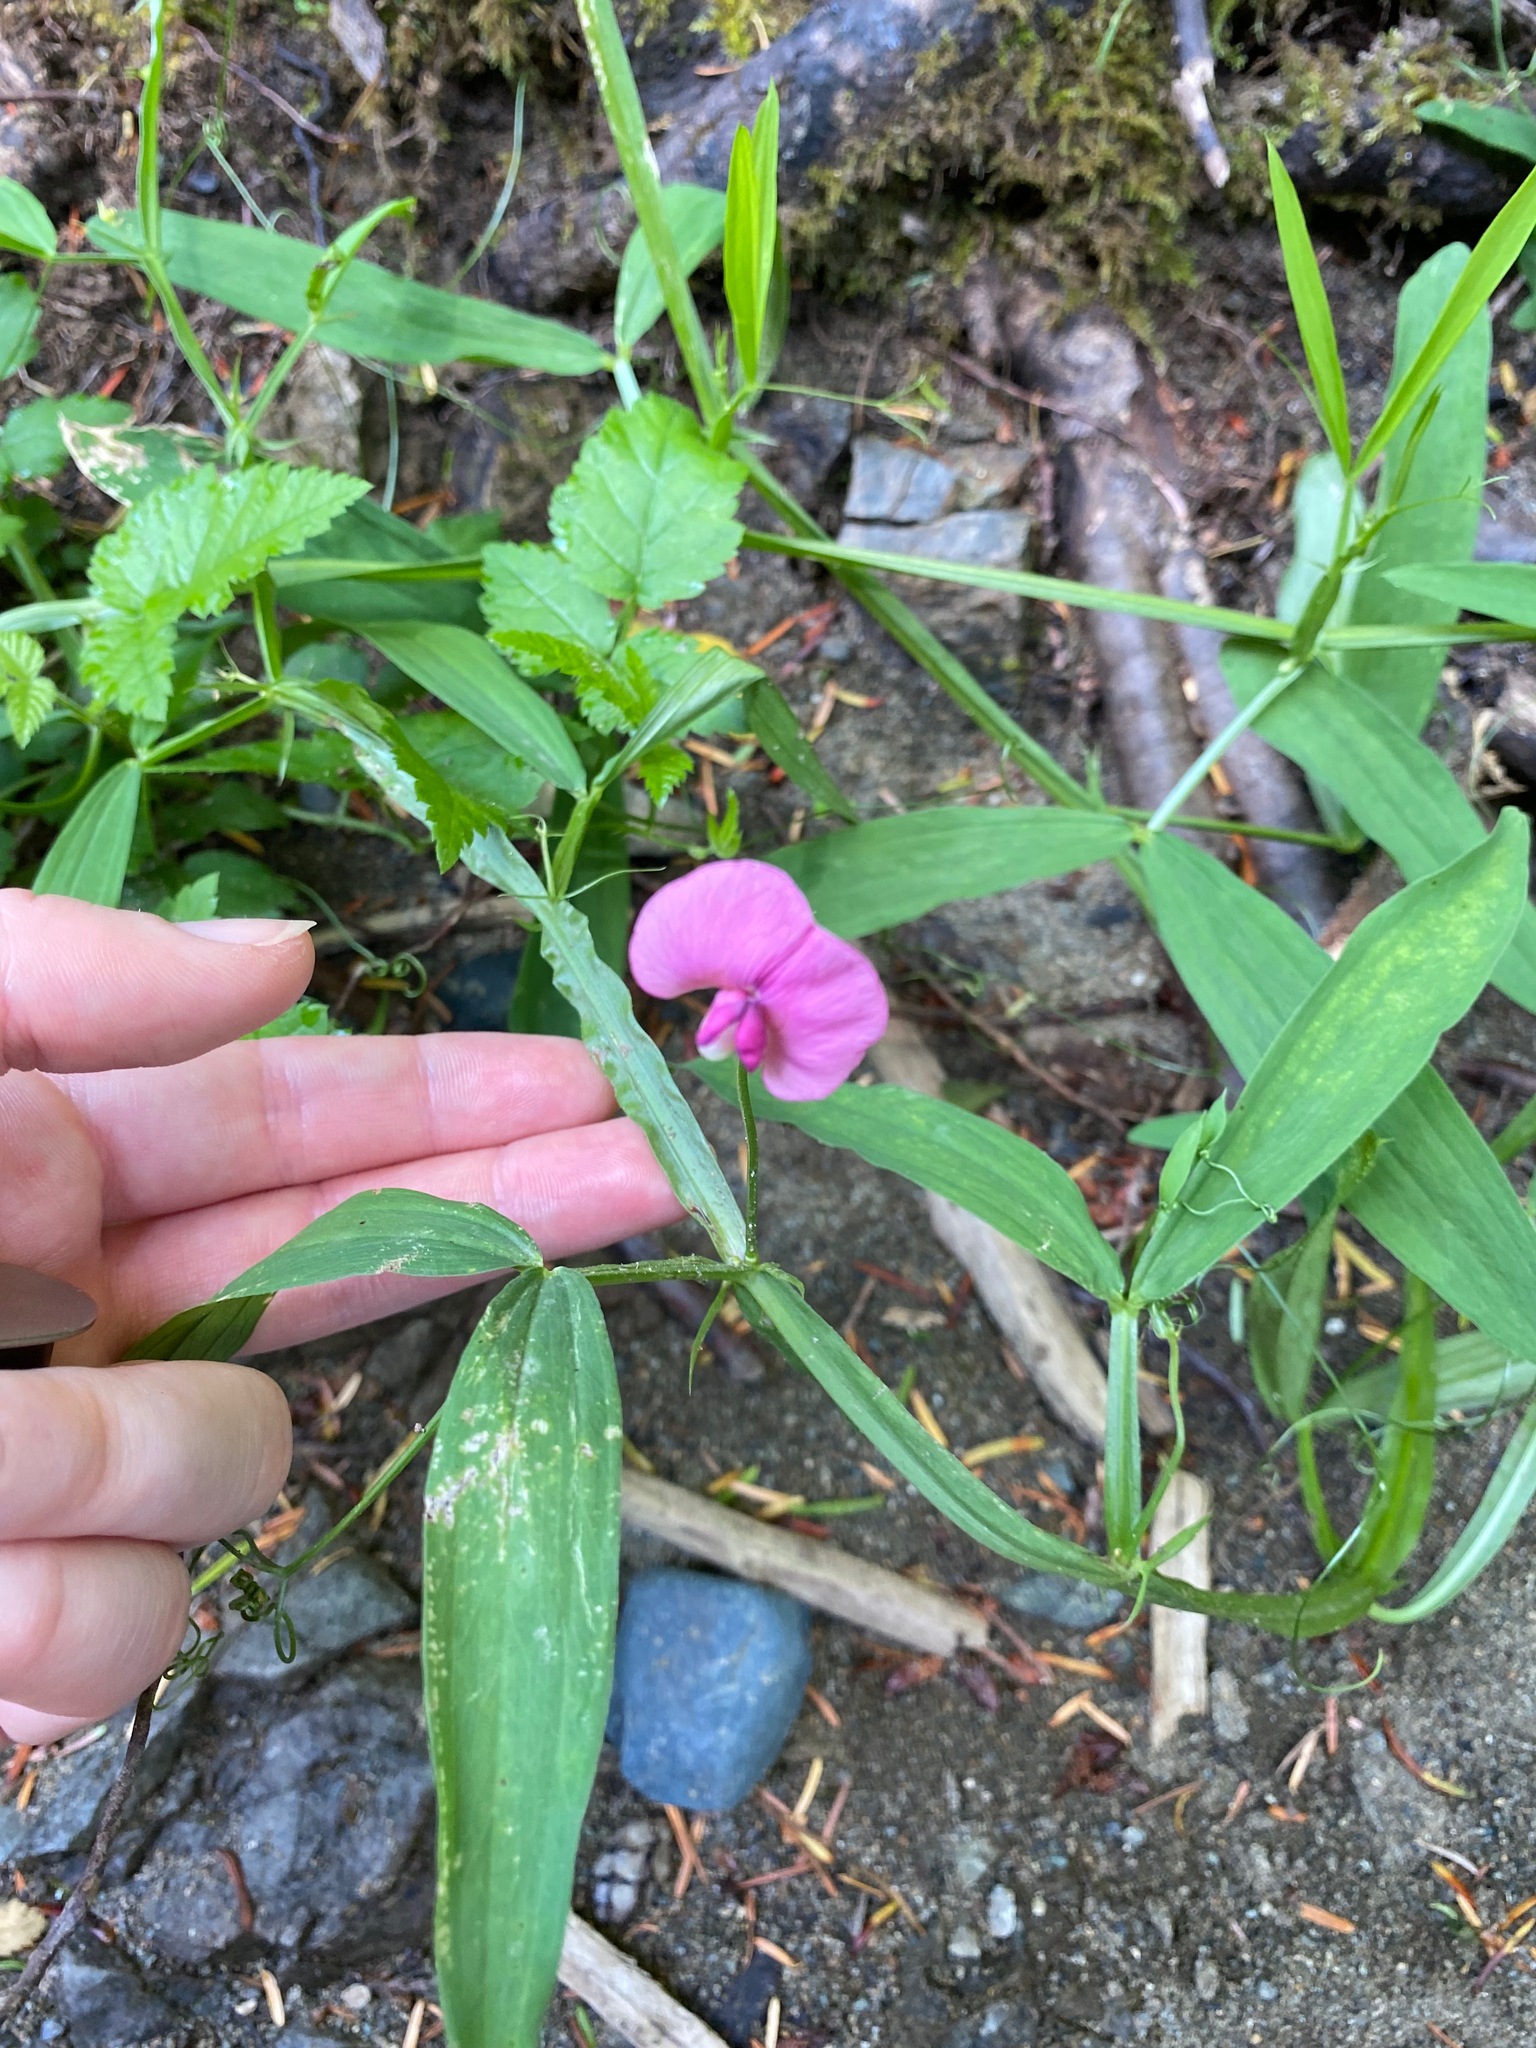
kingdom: Plantae
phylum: Tracheophyta
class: Magnoliopsida
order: Fabales
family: Fabaceae
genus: Lathyrus
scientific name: Lathyrus sylvestris
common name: Flat pea
